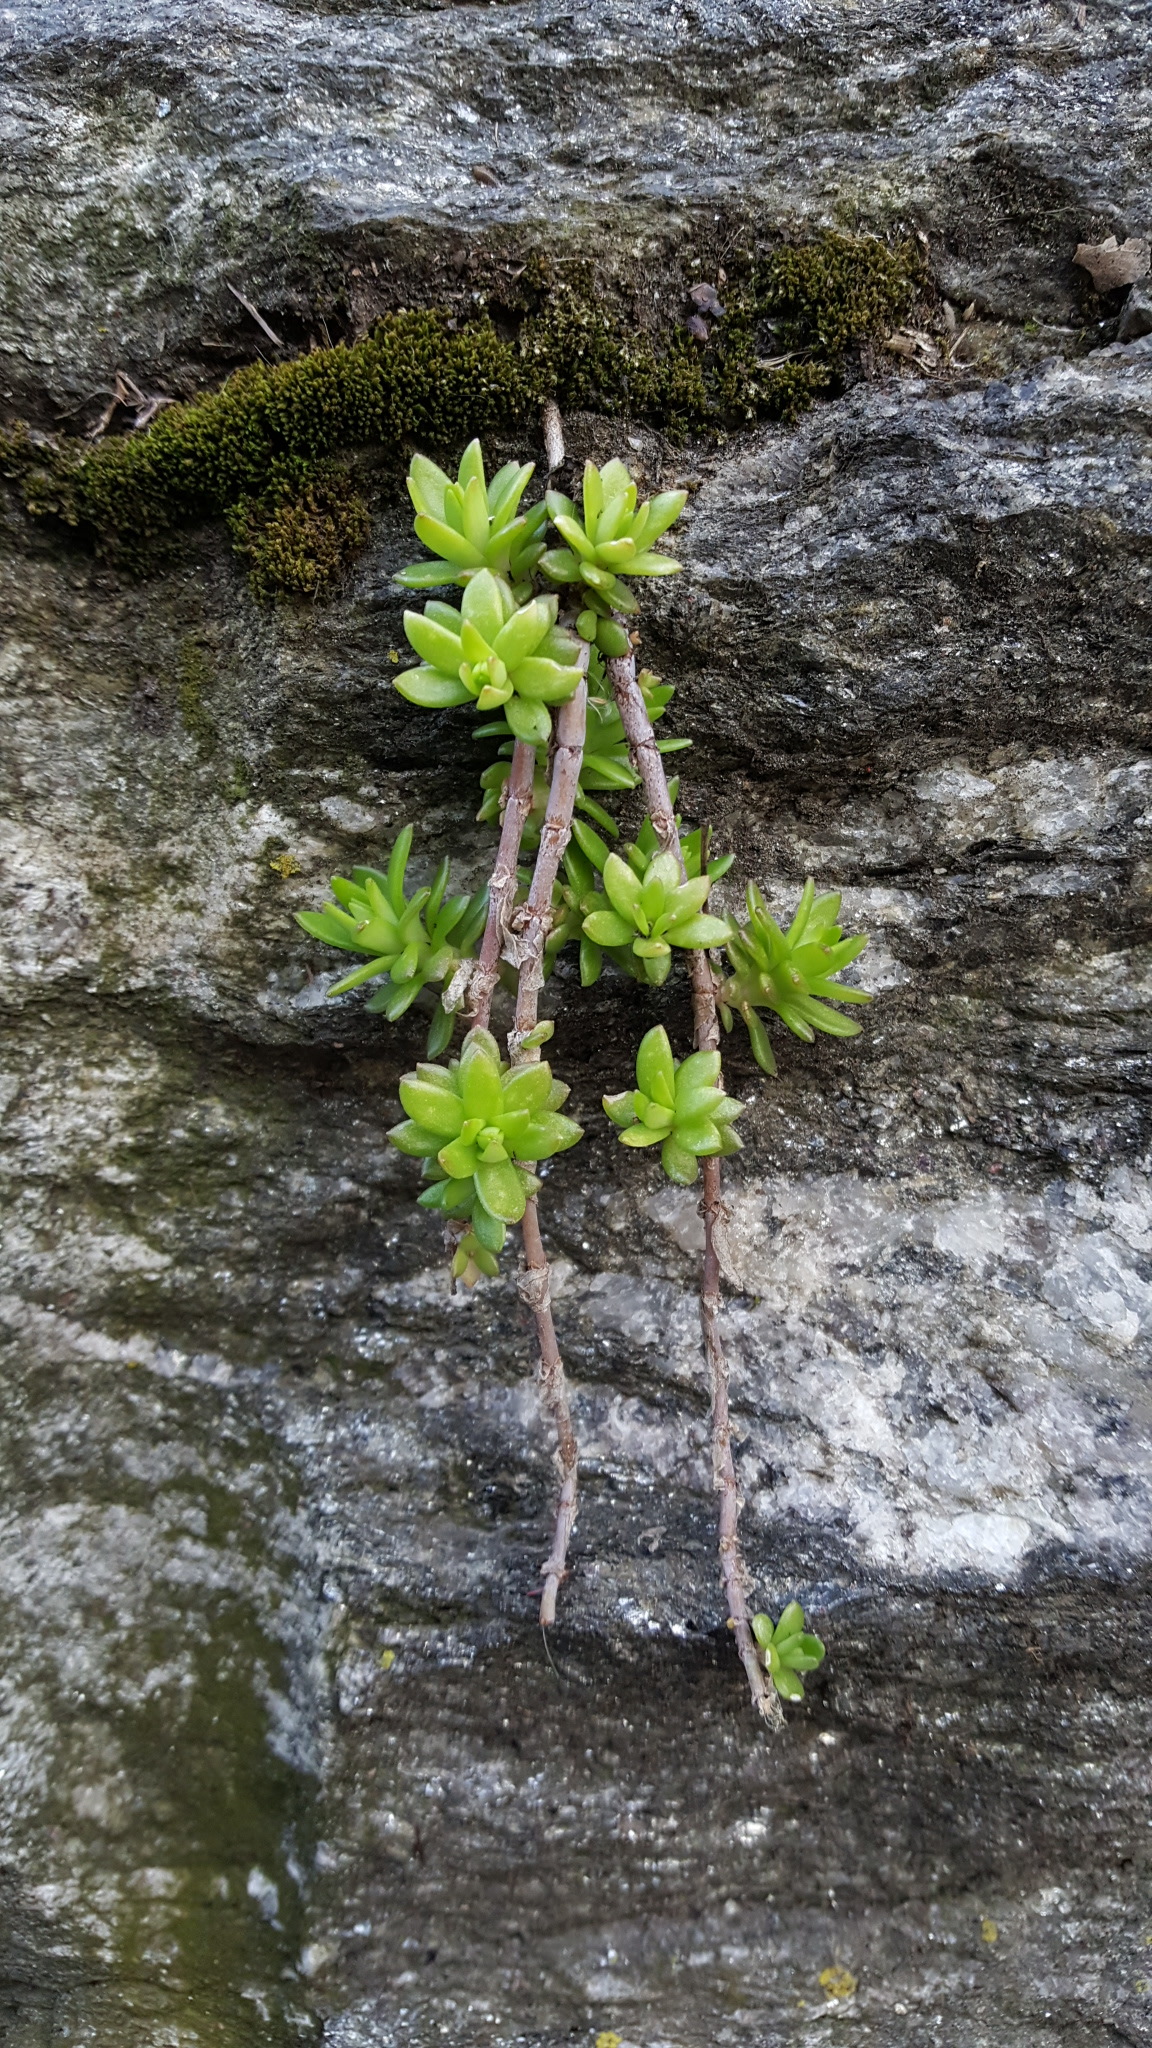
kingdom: Plantae
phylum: Tracheophyta
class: Magnoliopsida
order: Saxifragales
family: Crassulaceae
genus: Sedum
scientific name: Sedum sarmentosum
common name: Stringy stonecrop
